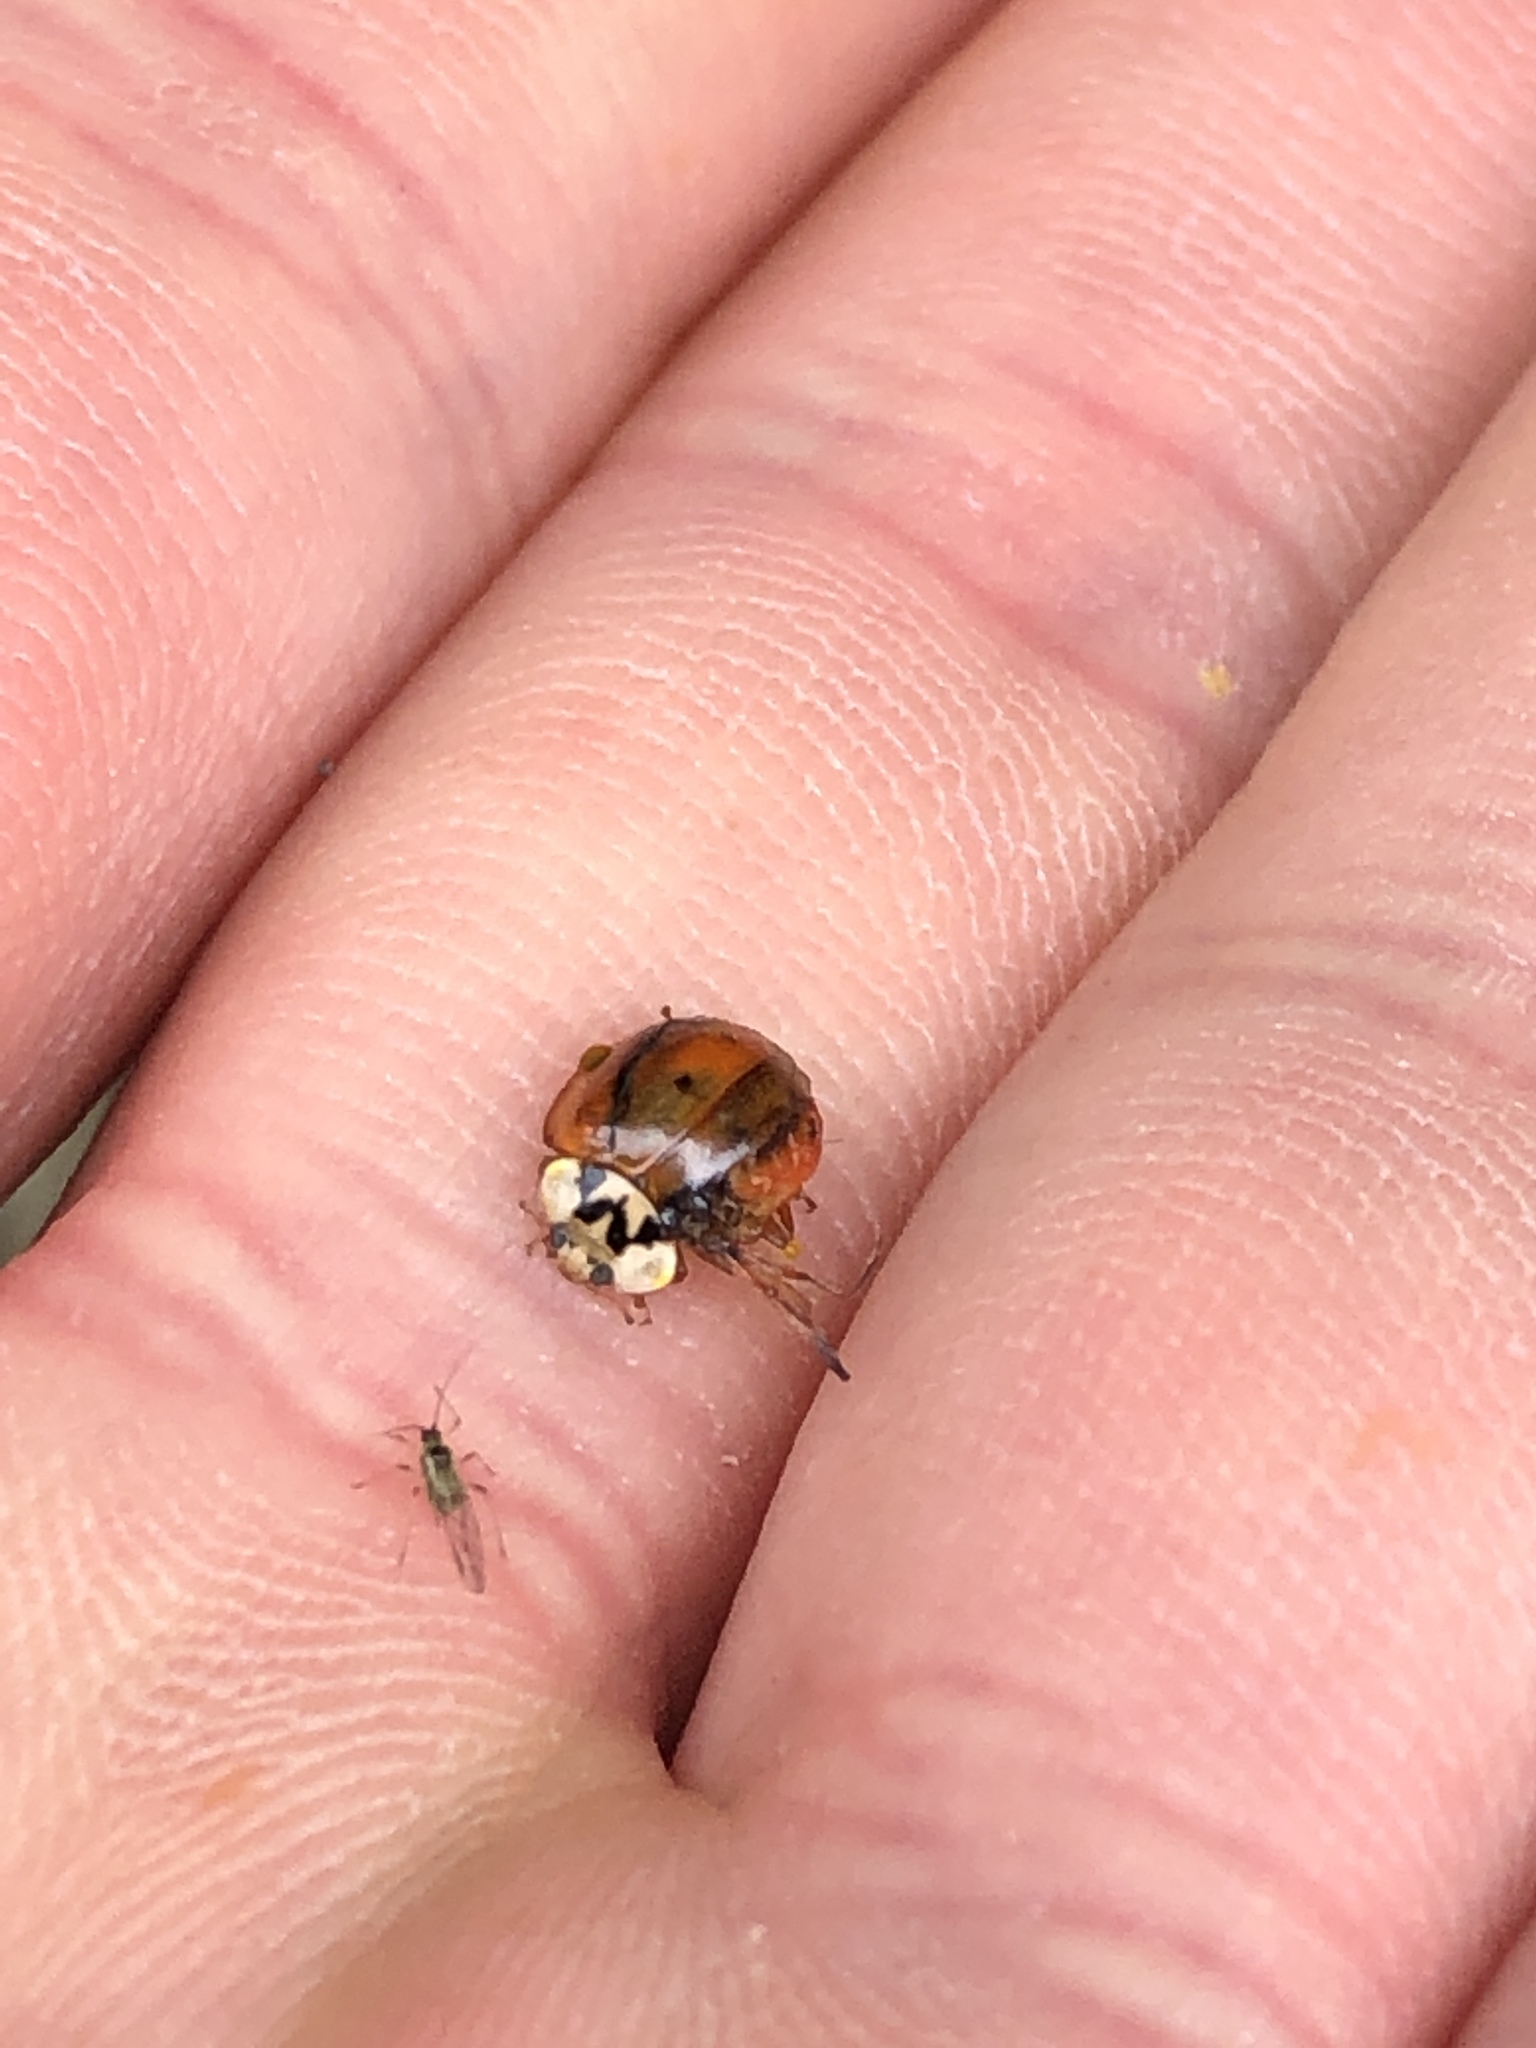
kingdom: Animalia
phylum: Arthropoda
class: Insecta
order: Coleoptera
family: Coccinellidae
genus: Harmonia
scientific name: Harmonia axyridis
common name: Harlequin ladybird
